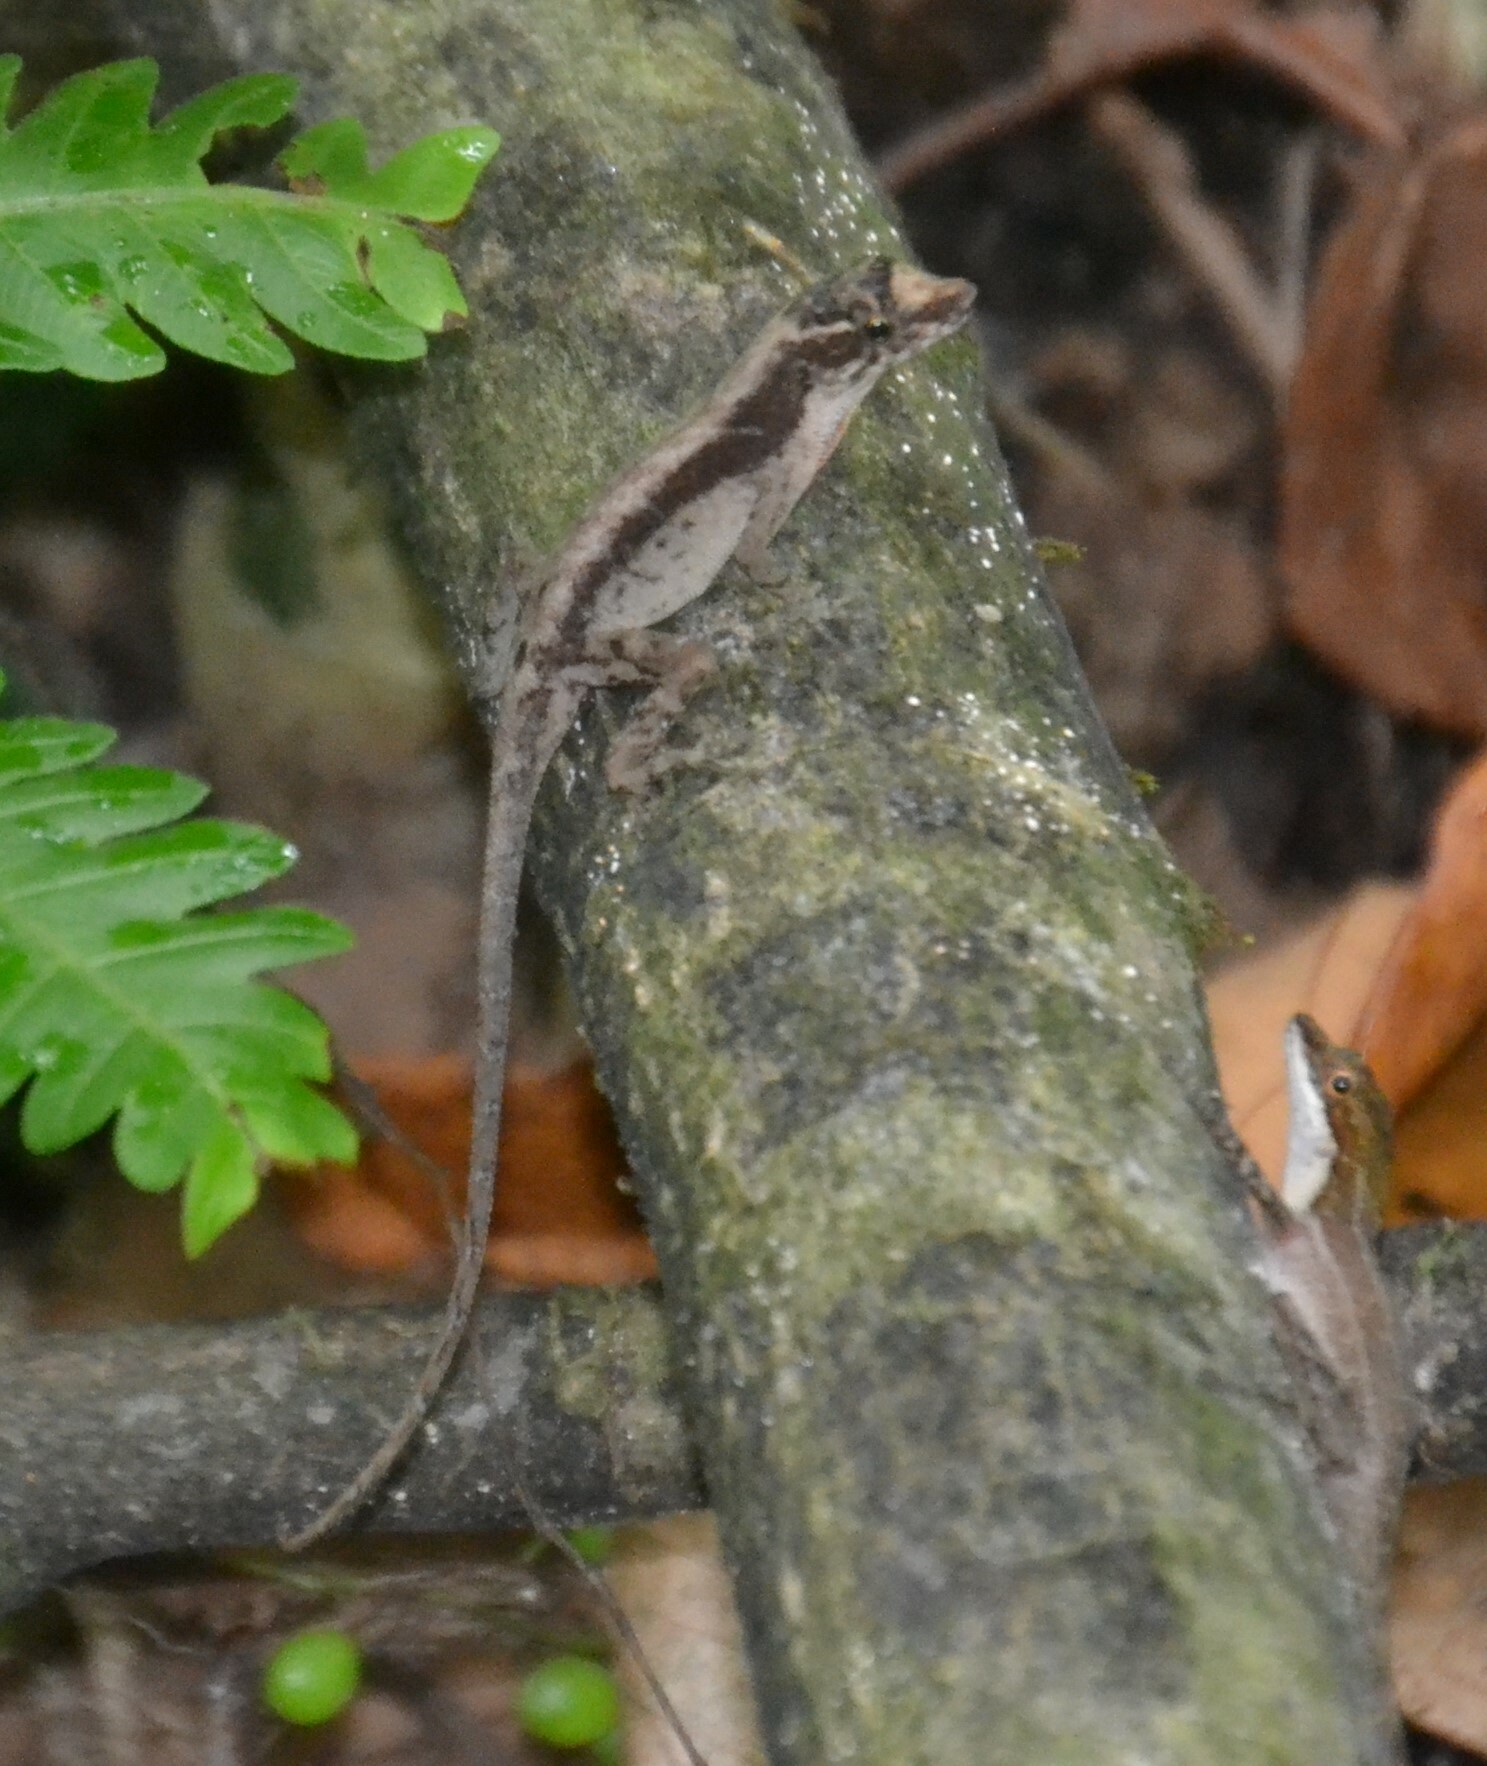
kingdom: Animalia
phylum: Chordata
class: Squamata
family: Dactyloidae
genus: Anolis
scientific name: Anolis humilis
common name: Humble anole
